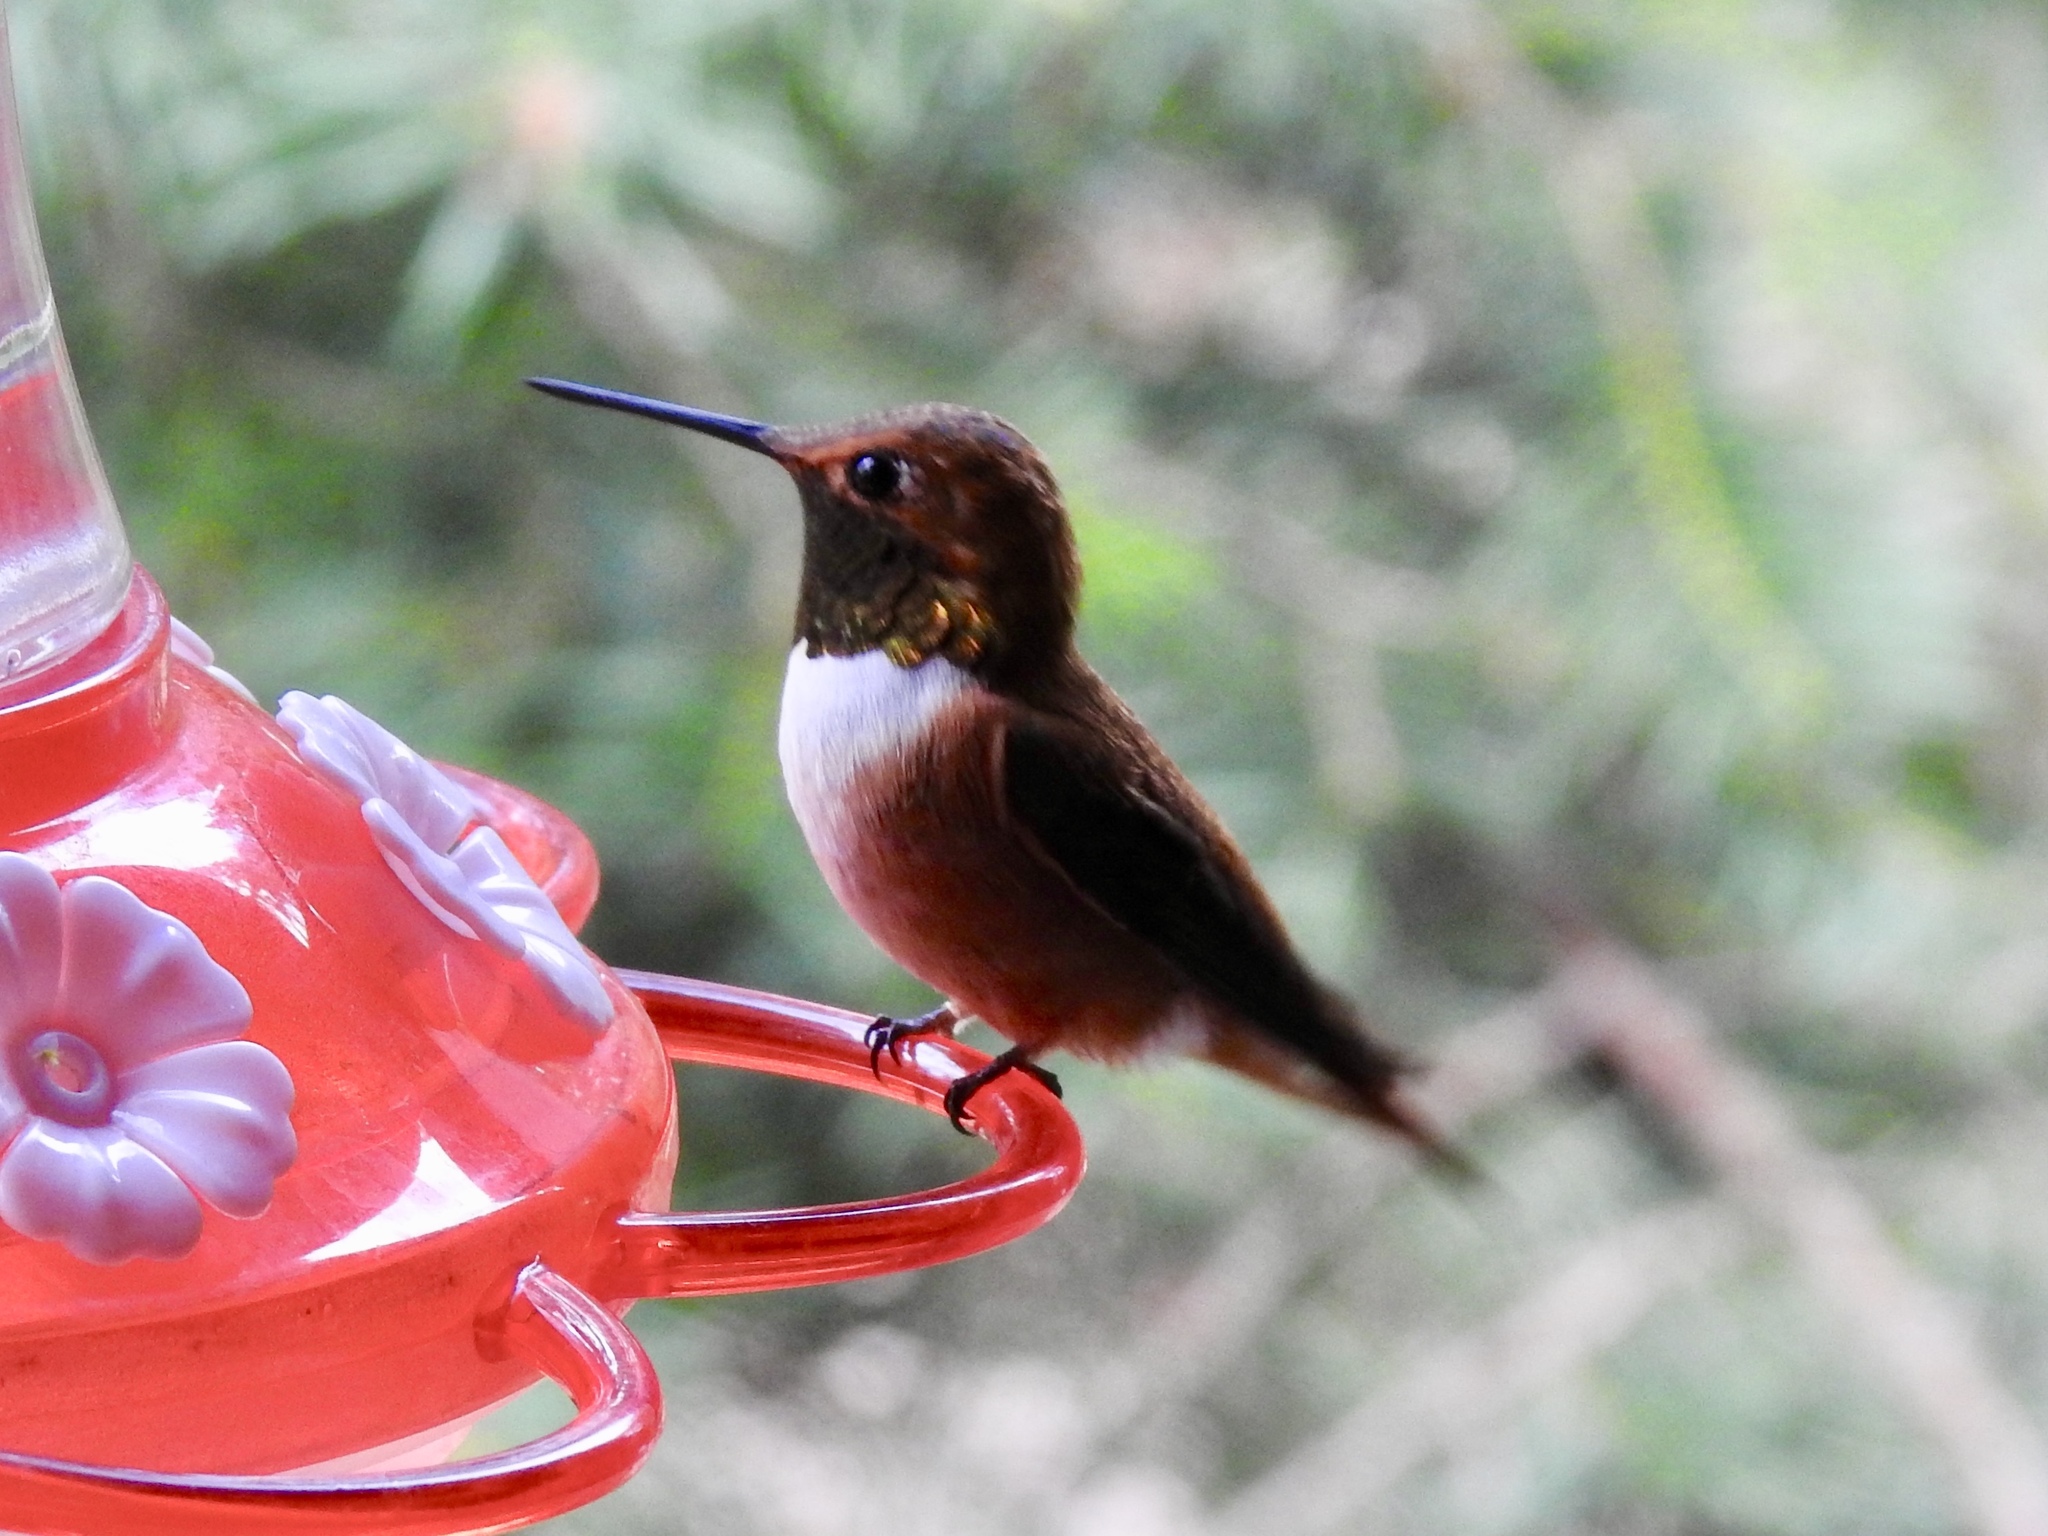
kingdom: Animalia
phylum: Chordata
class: Aves
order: Apodiformes
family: Trochilidae
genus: Selasphorus
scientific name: Selasphorus rufus
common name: Rufous hummingbird
